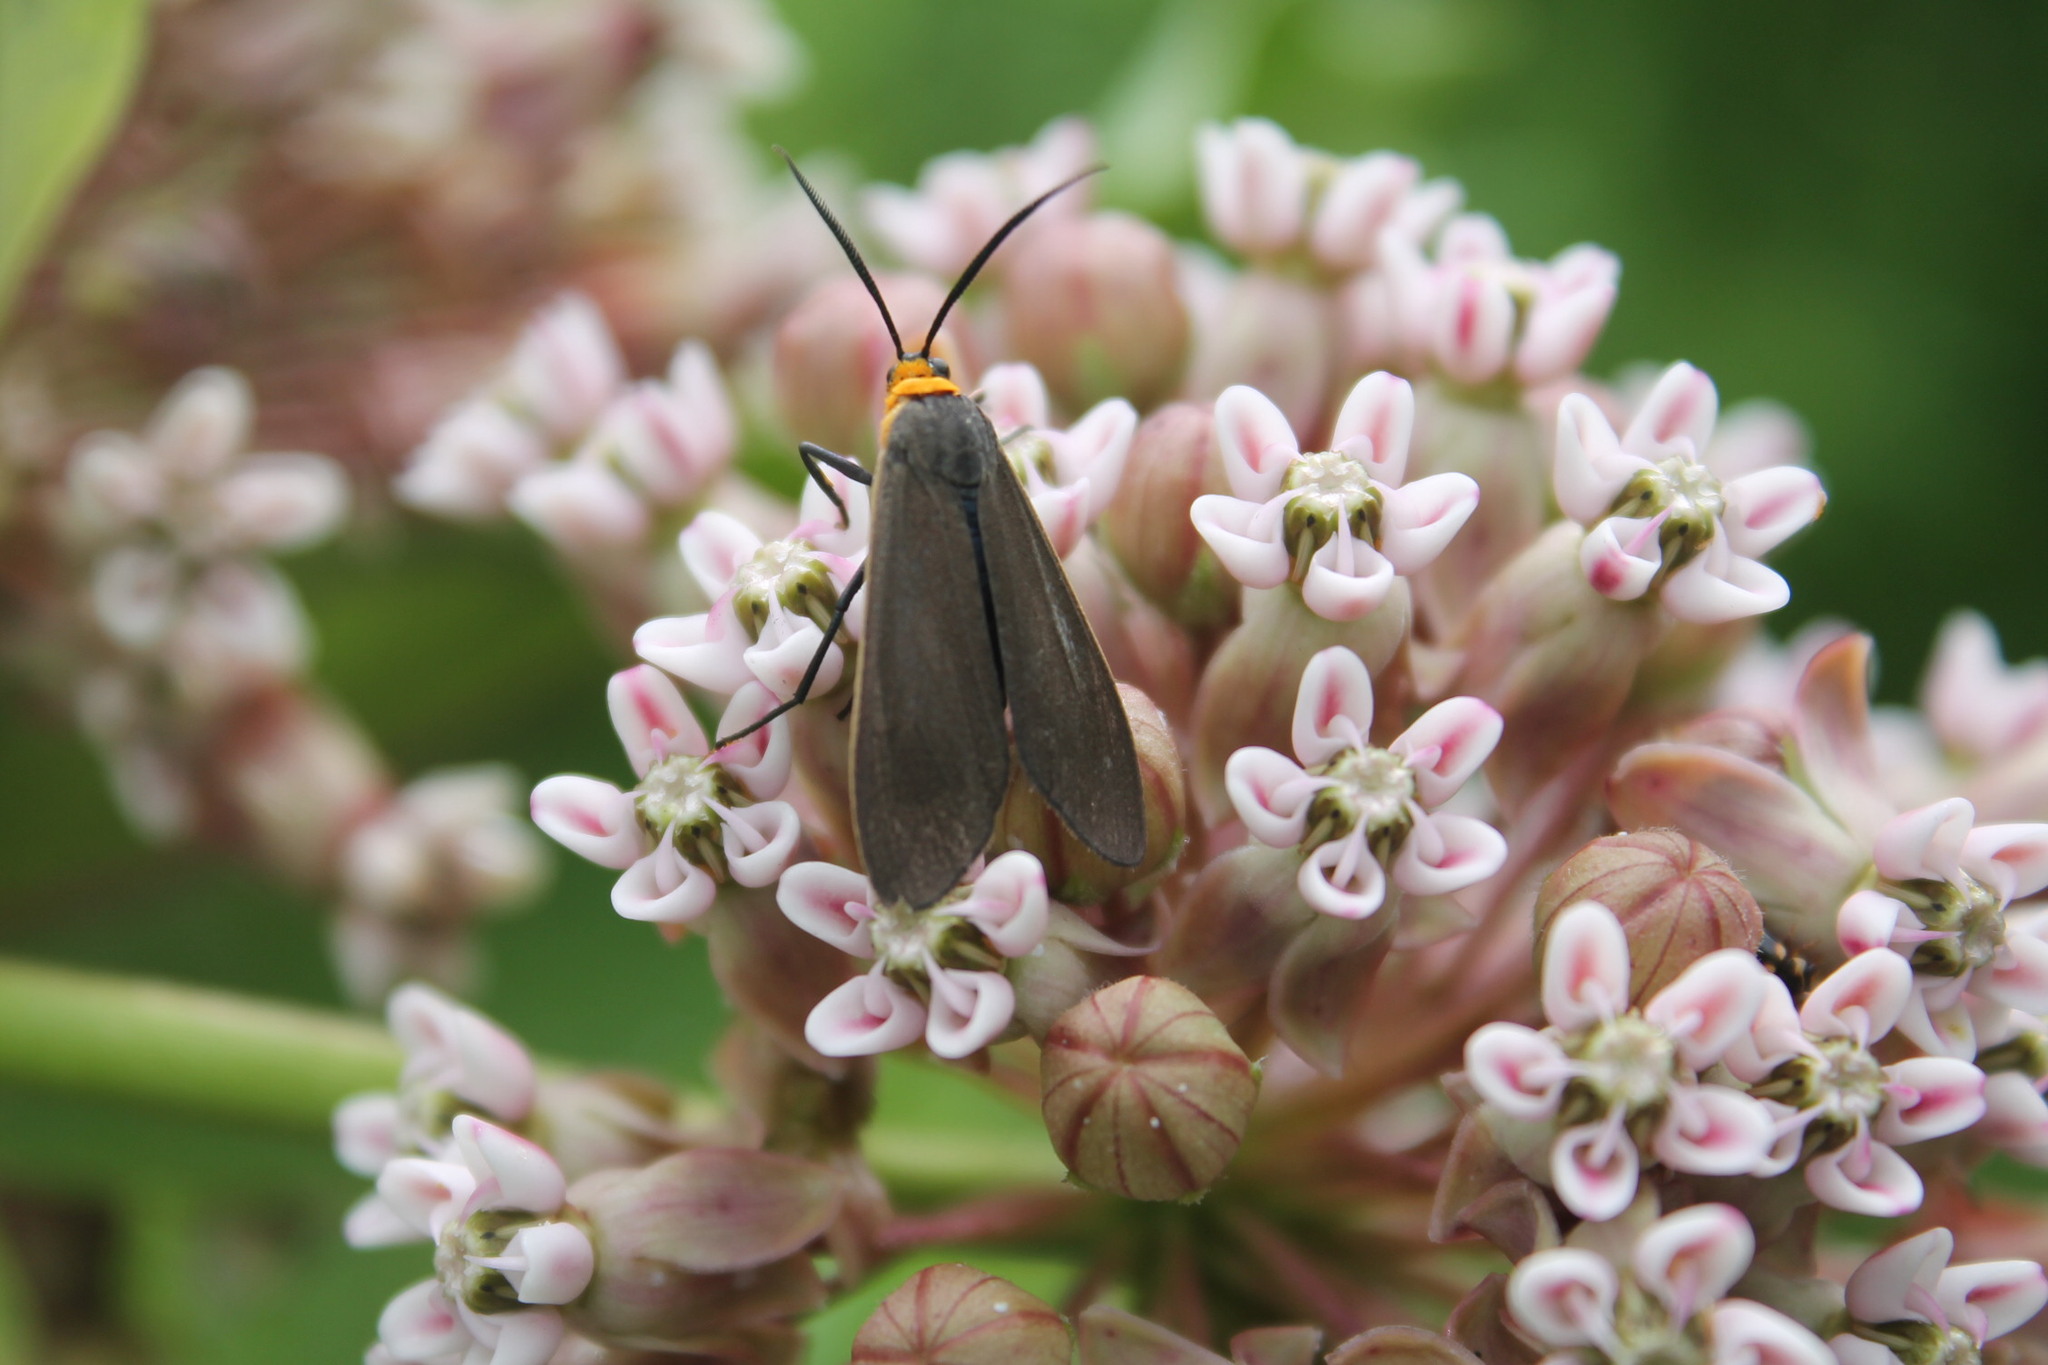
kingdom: Animalia
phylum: Arthropoda
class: Insecta
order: Lepidoptera
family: Erebidae
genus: Cisseps
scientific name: Cisseps fulvicollis
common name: Yellow-collared scape moth
